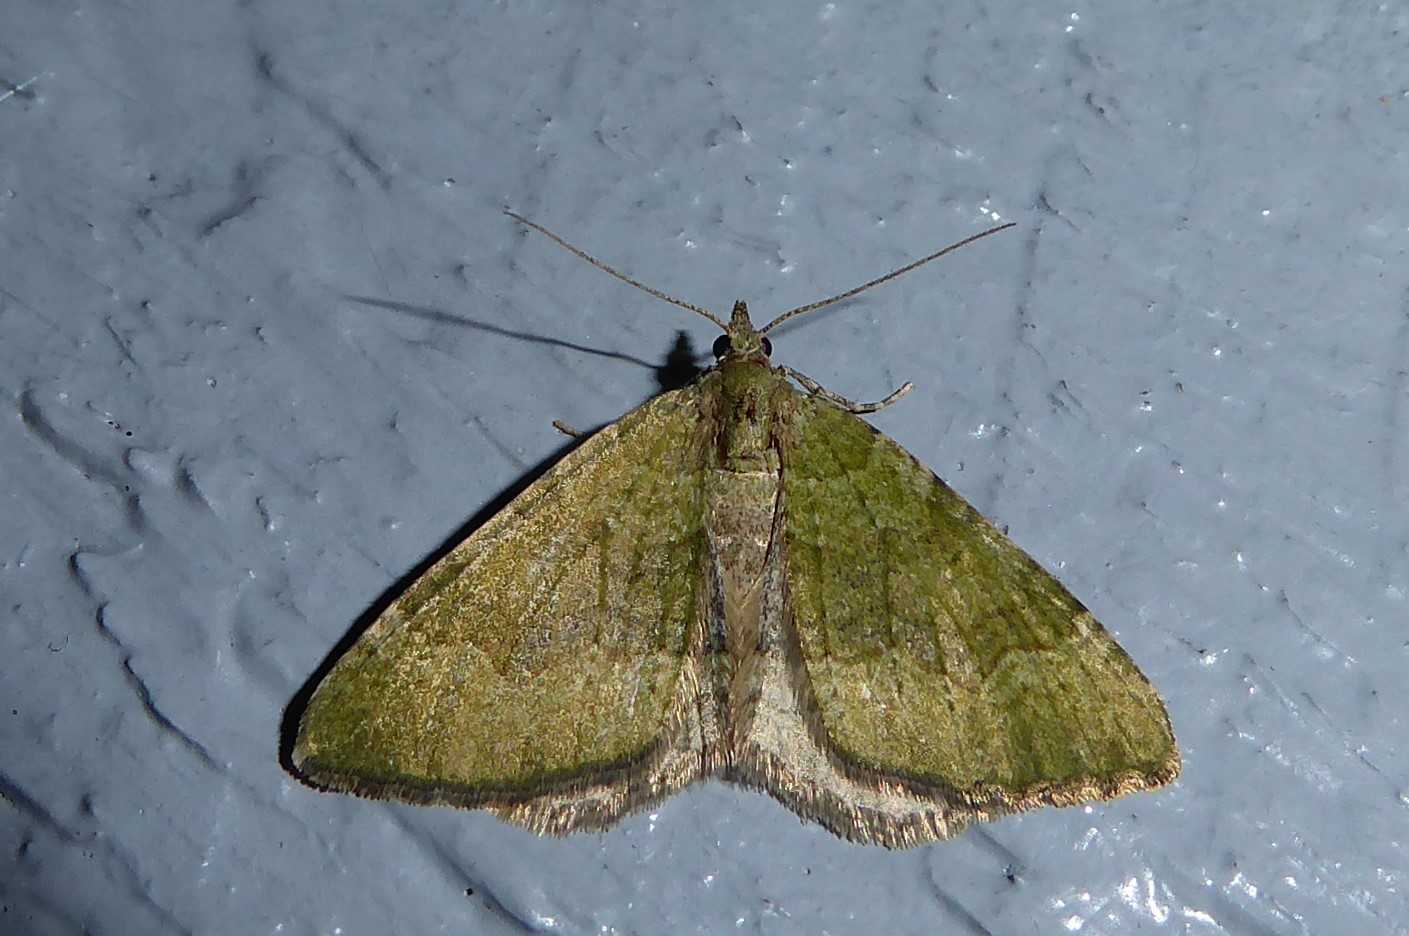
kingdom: Animalia
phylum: Arthropoda
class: Insecta
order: Lepidoptera
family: Geometridae
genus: Epyaxa
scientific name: Epyaxa rosearia
